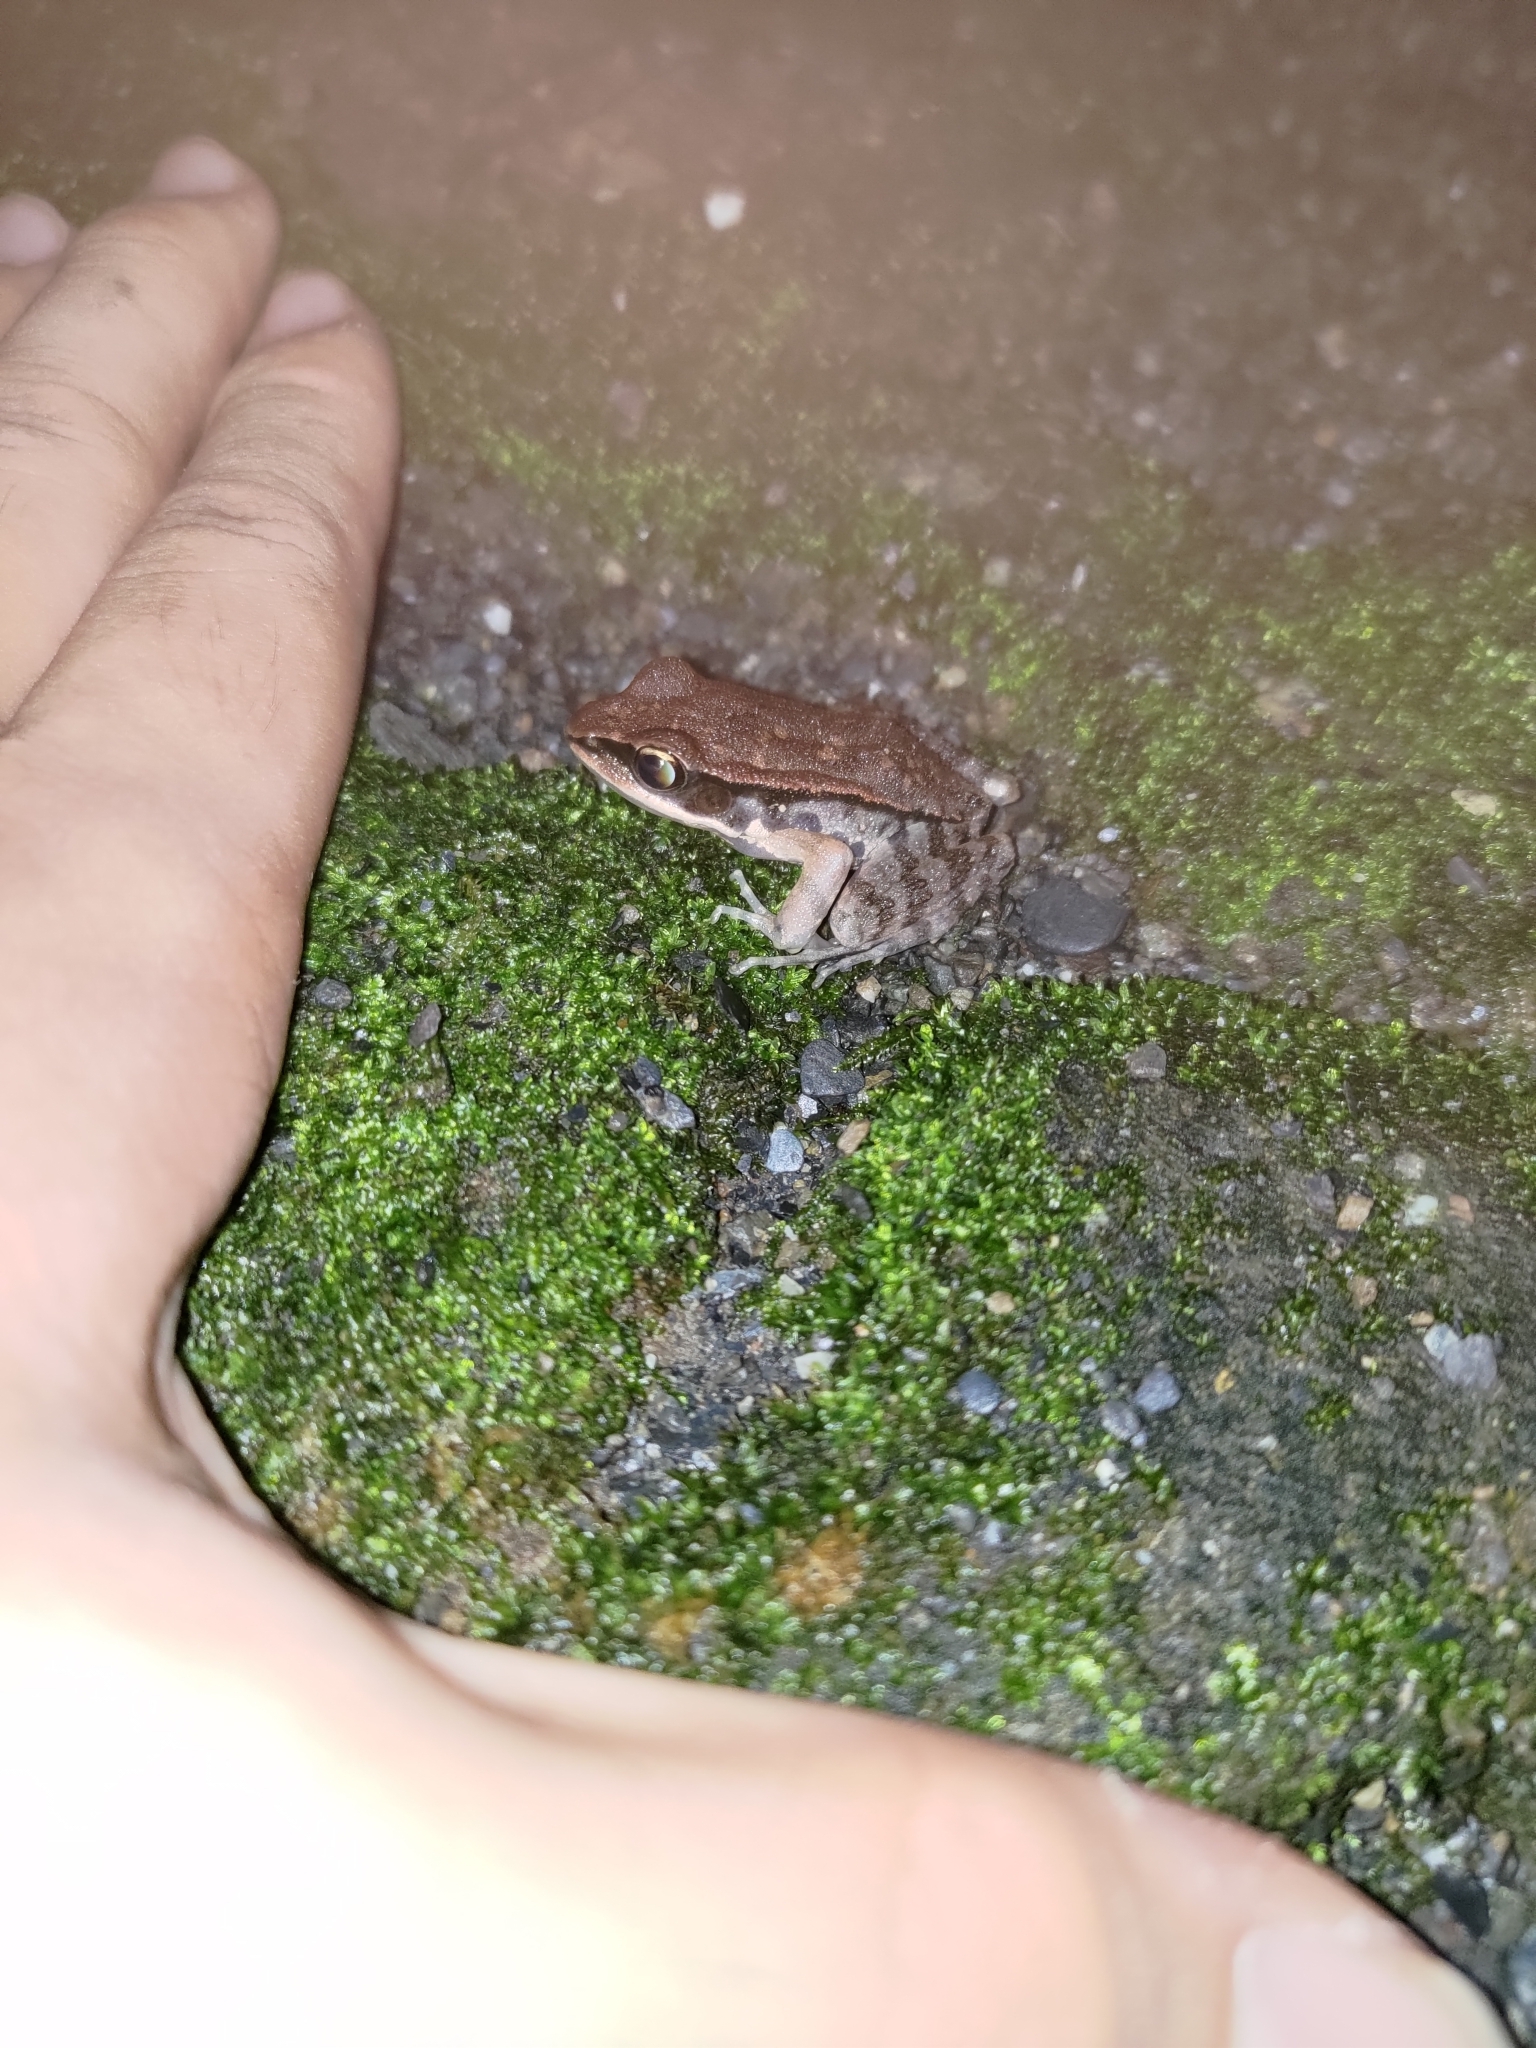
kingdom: Animalia
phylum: Chordata
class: Amphibia
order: Anura
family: Ranidae
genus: Hylarana
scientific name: Hylarana latouchii
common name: Broad-folded frog
